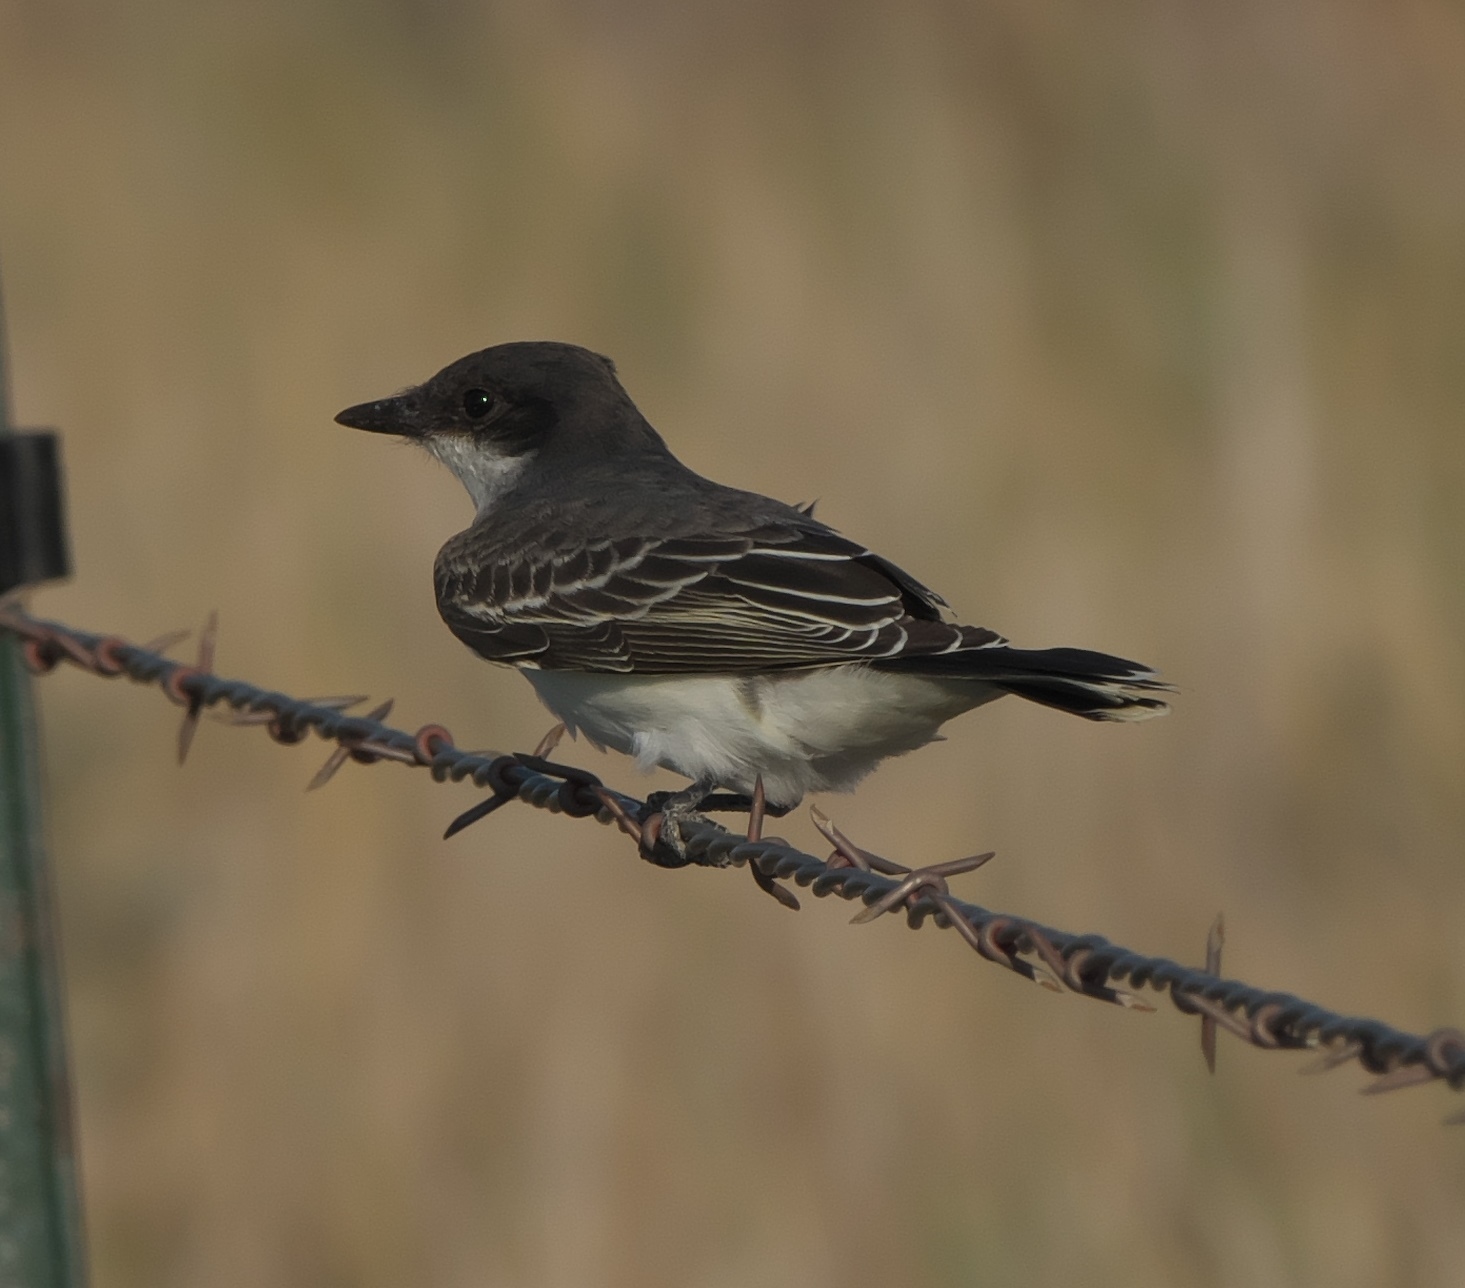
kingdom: Animalia
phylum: Chordata
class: Aves
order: Passeriformes
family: Tyrannidae
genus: Tyrannus
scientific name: Tyrannus tyrannus
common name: Eastern kingbird
